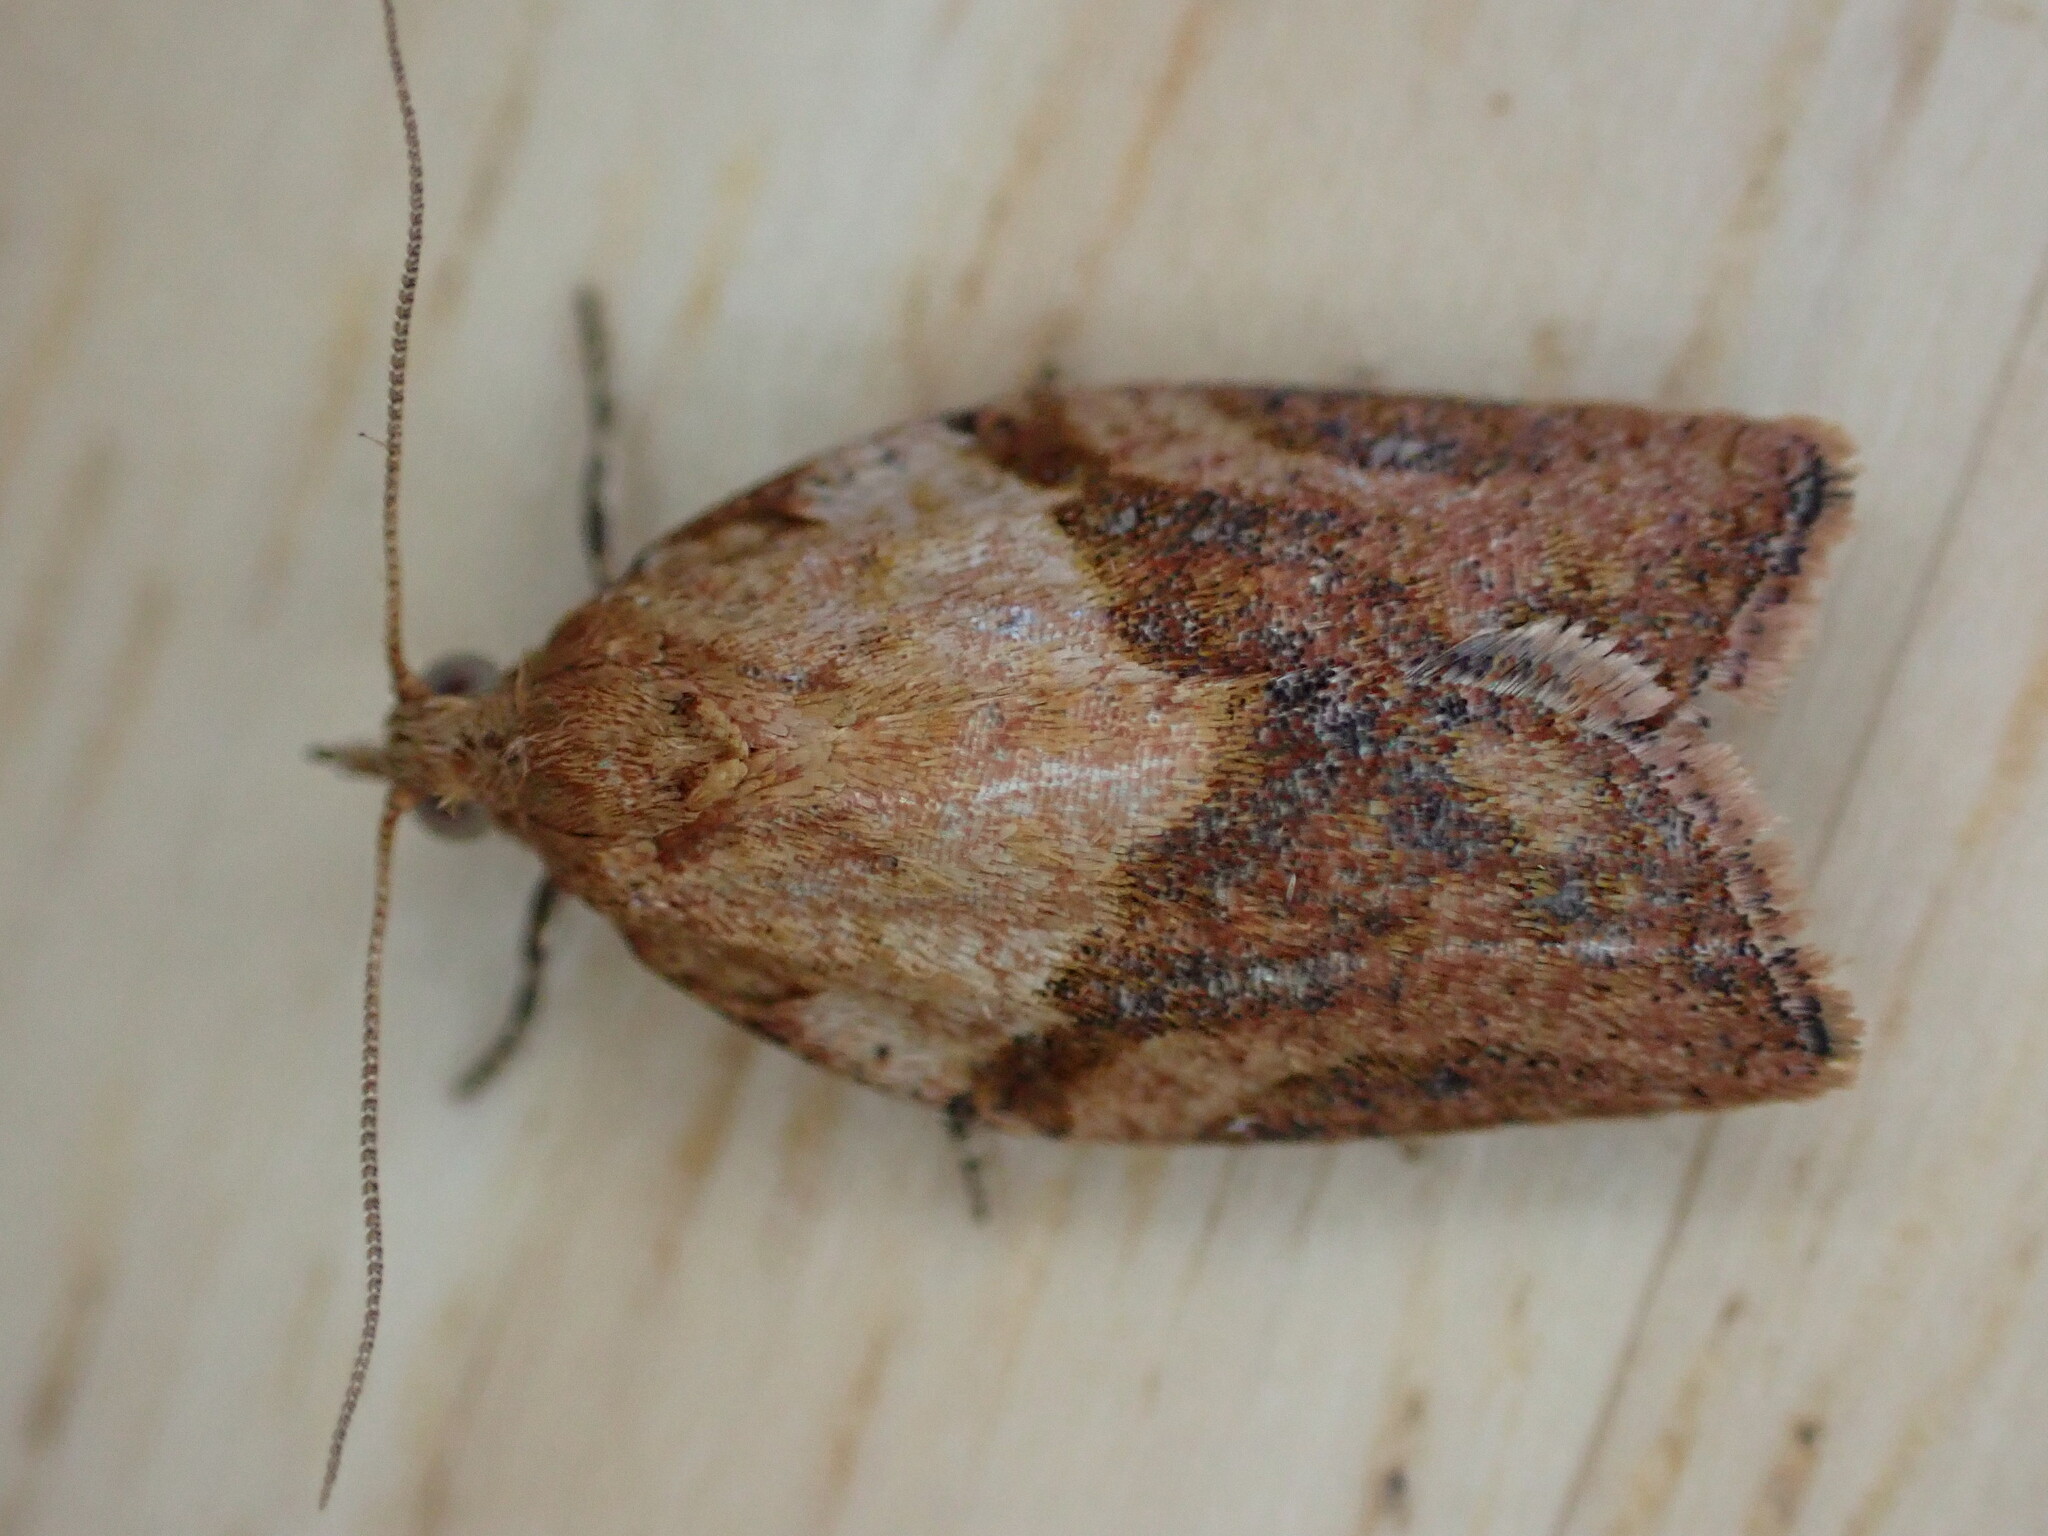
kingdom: Animalia
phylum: Arthropoda
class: Insecta
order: Lepidoptera
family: Tortricidae
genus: Epiphyas
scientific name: Epiphyas postvittana
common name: Light brown apple moth
